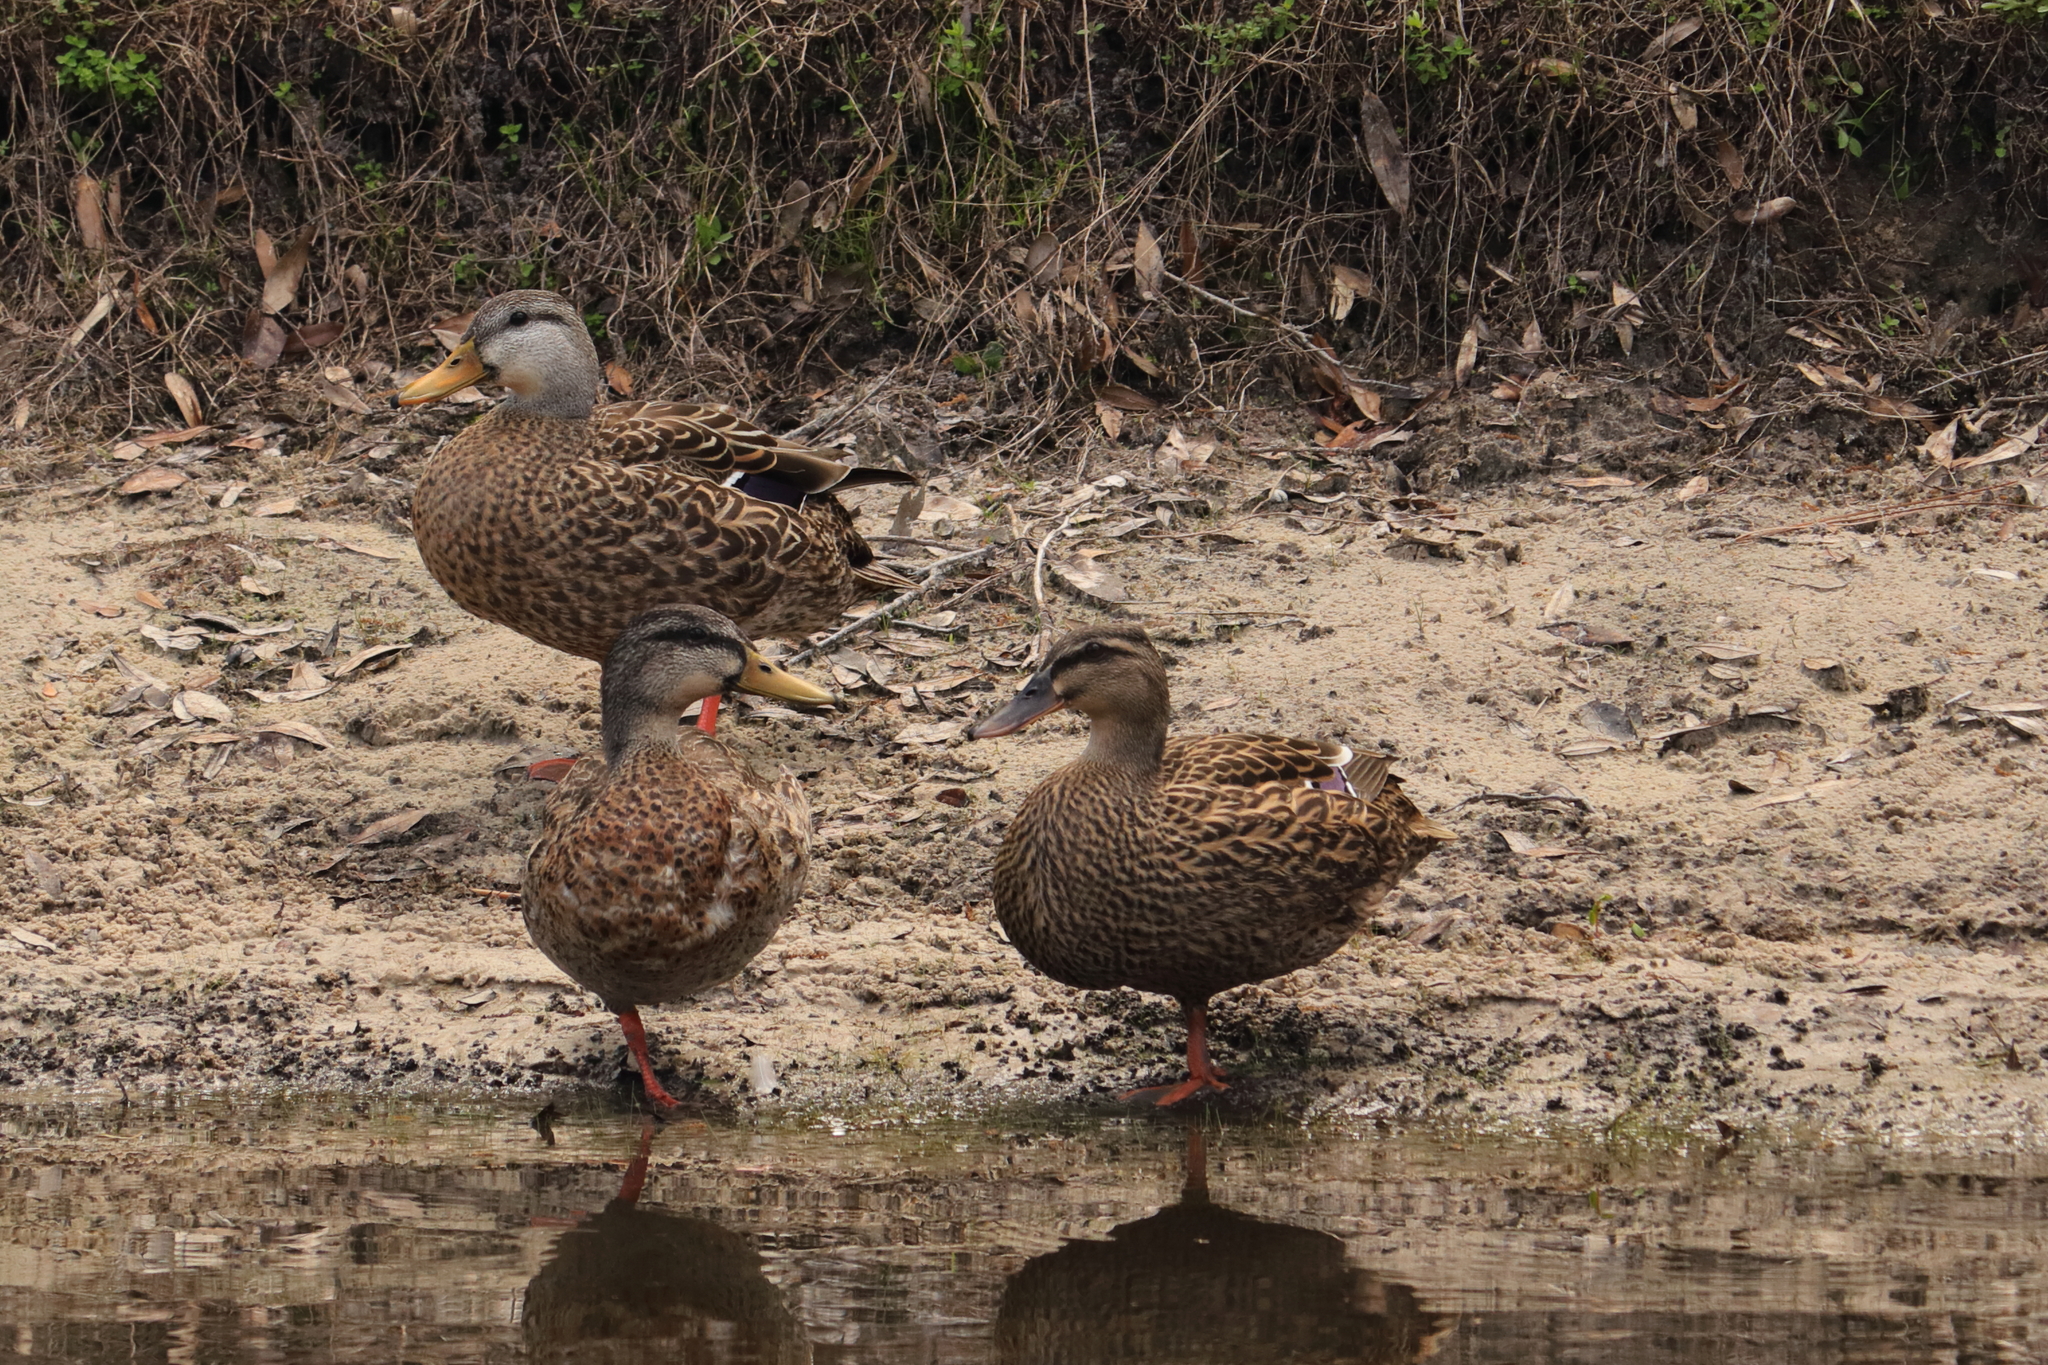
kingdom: Animalia
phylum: Chordata
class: Aves
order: Anseriformes
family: Anatidae
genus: Anas
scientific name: Anas
